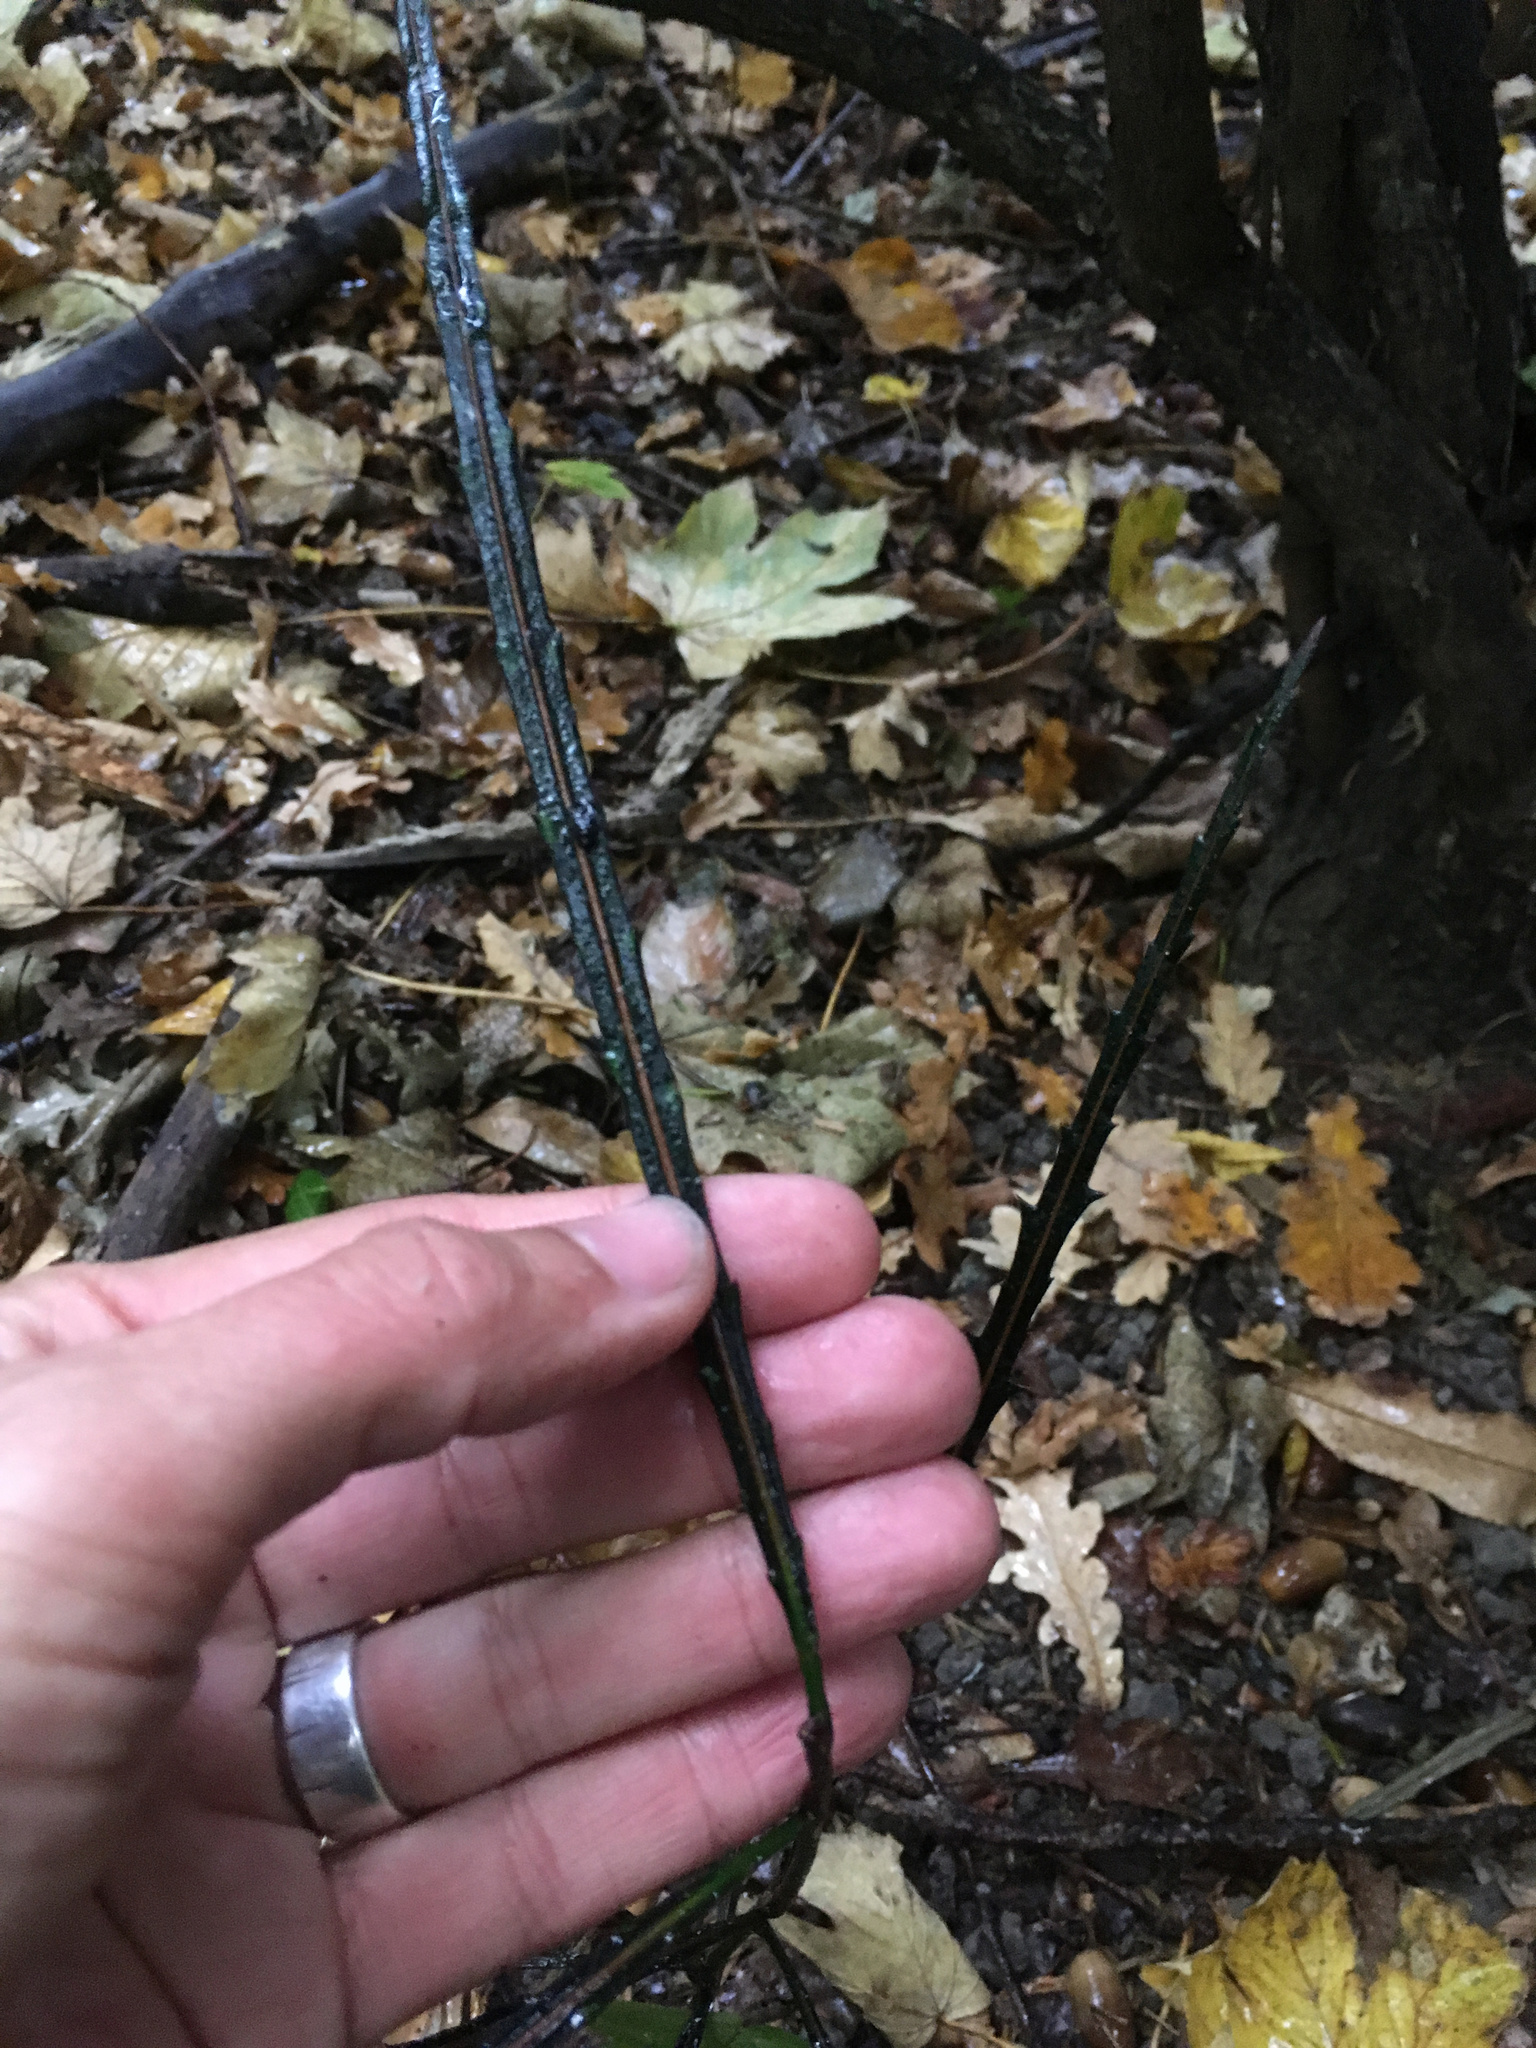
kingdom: Plantae
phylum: Tracheophyta
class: Magnoliopsida
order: Apiales
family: Araliaceae
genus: Pseudopanax
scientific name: Pseudopanax crassifolius
